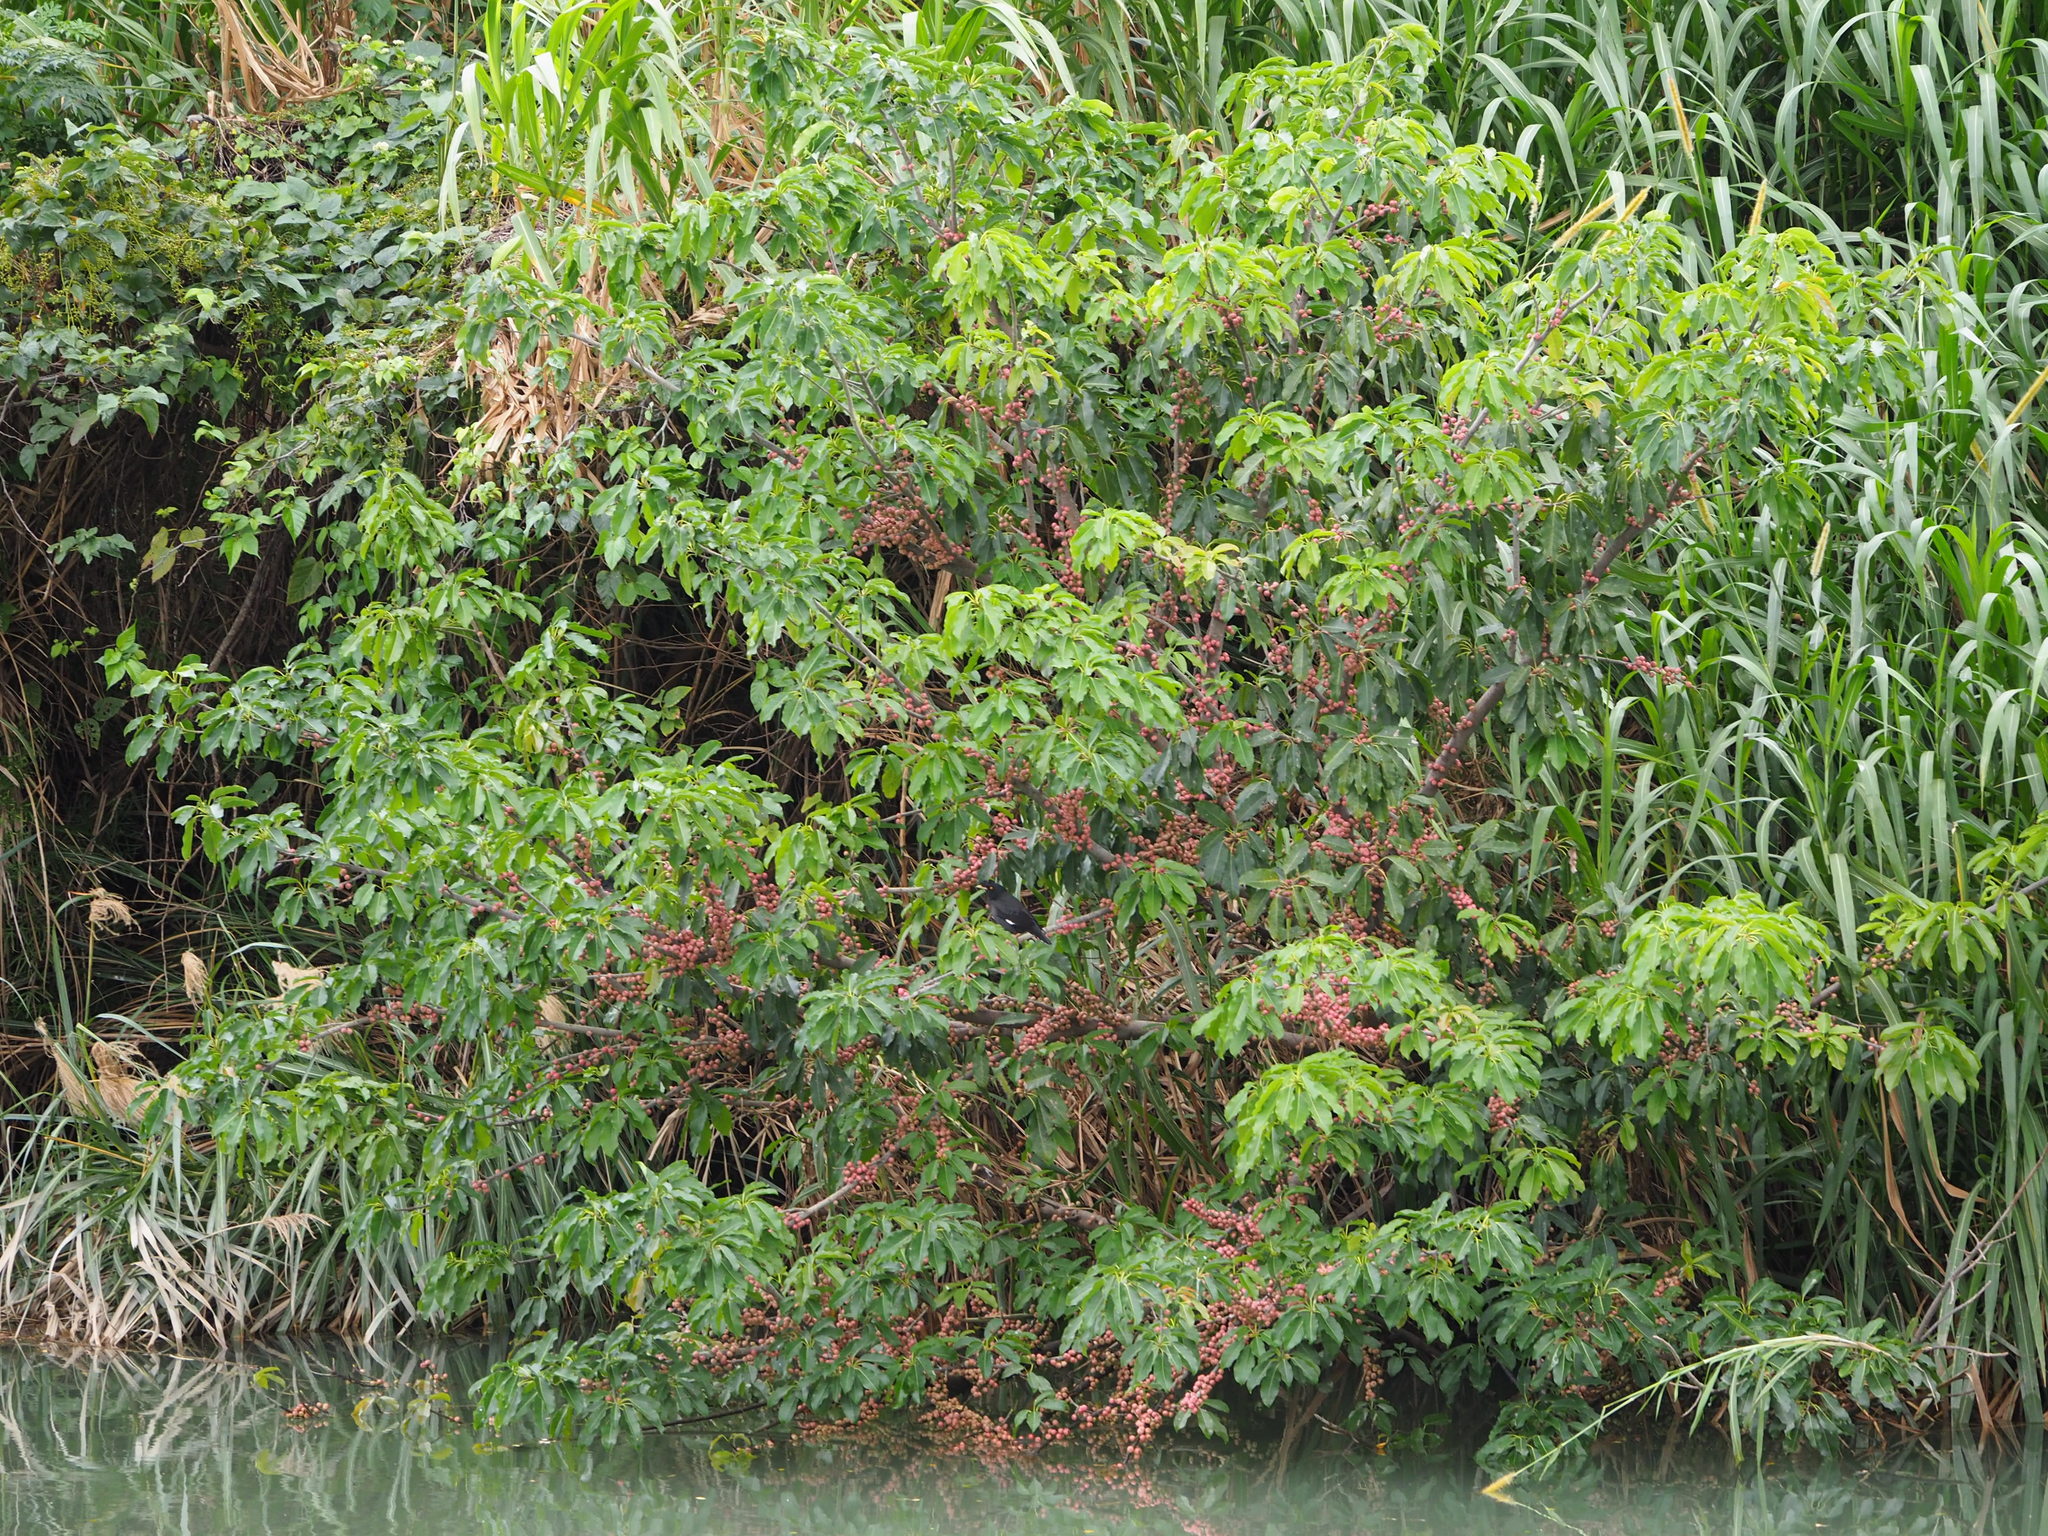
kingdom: Plantae
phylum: Tracheophyta
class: Magnoliopsida
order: Rosales
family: Moraceae
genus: Ficus
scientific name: Ficus subpisocarpa
